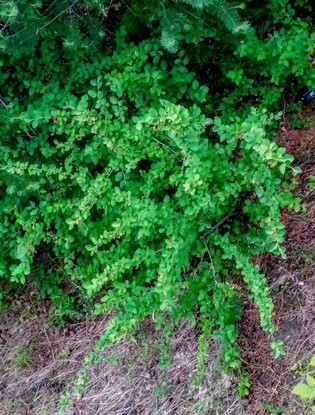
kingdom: Plantae
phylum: Tracheophyta
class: Magnoliopsida
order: Rosales
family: Rosaceae
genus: Cotoneaster
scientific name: Cotoneaster melanocarpus
